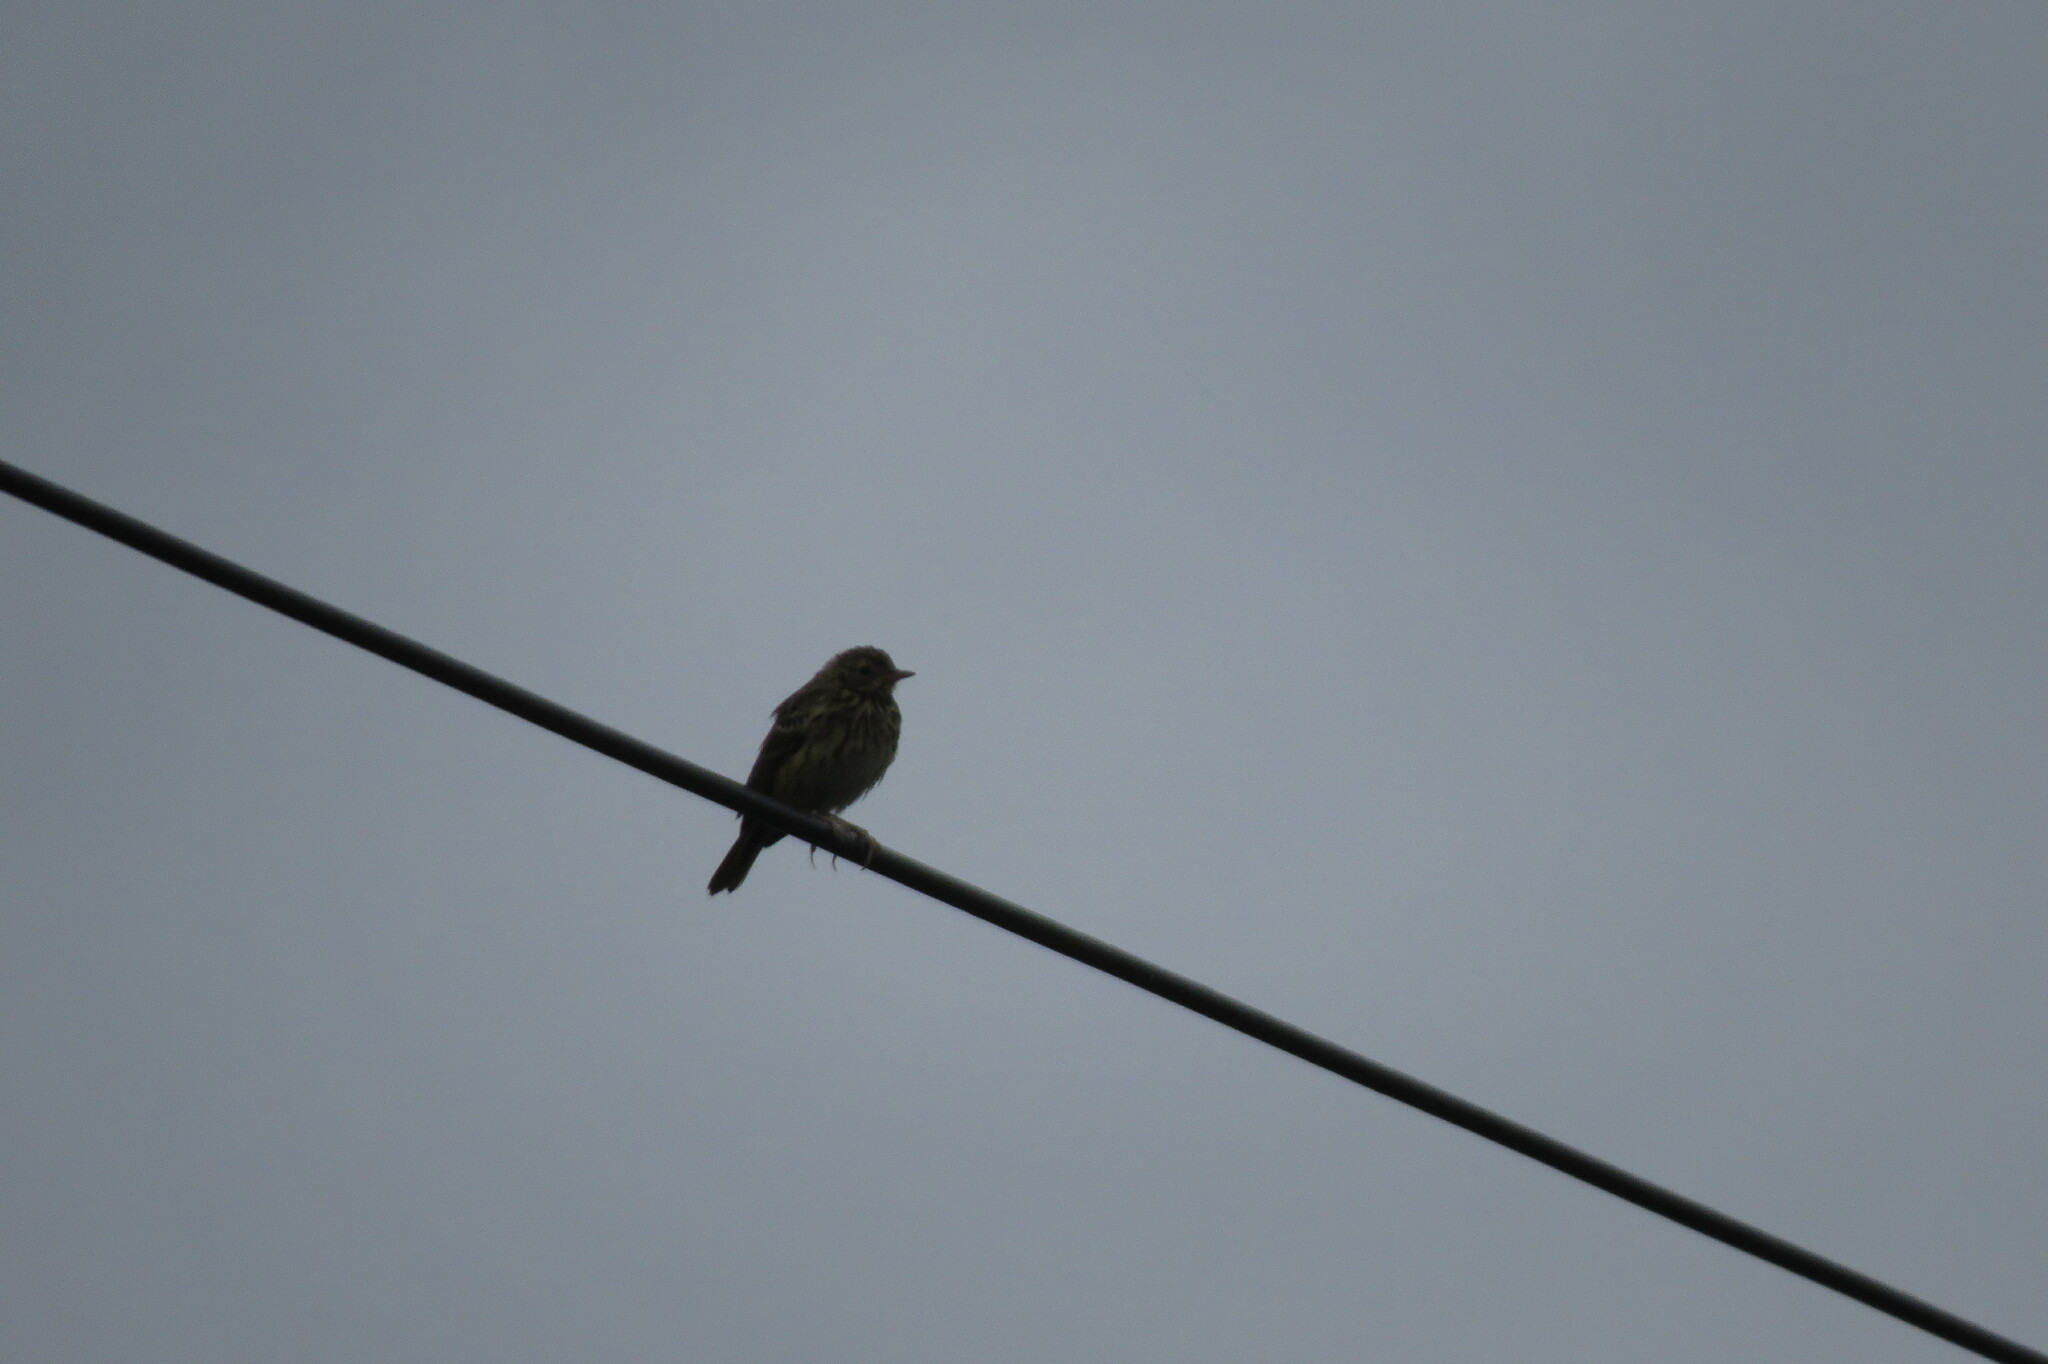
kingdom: Animalia
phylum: Chordata
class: Aves
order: Passeriformes
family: Motacillidae
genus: Anthus
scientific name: Anthus trivialis
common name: Tree pipit
